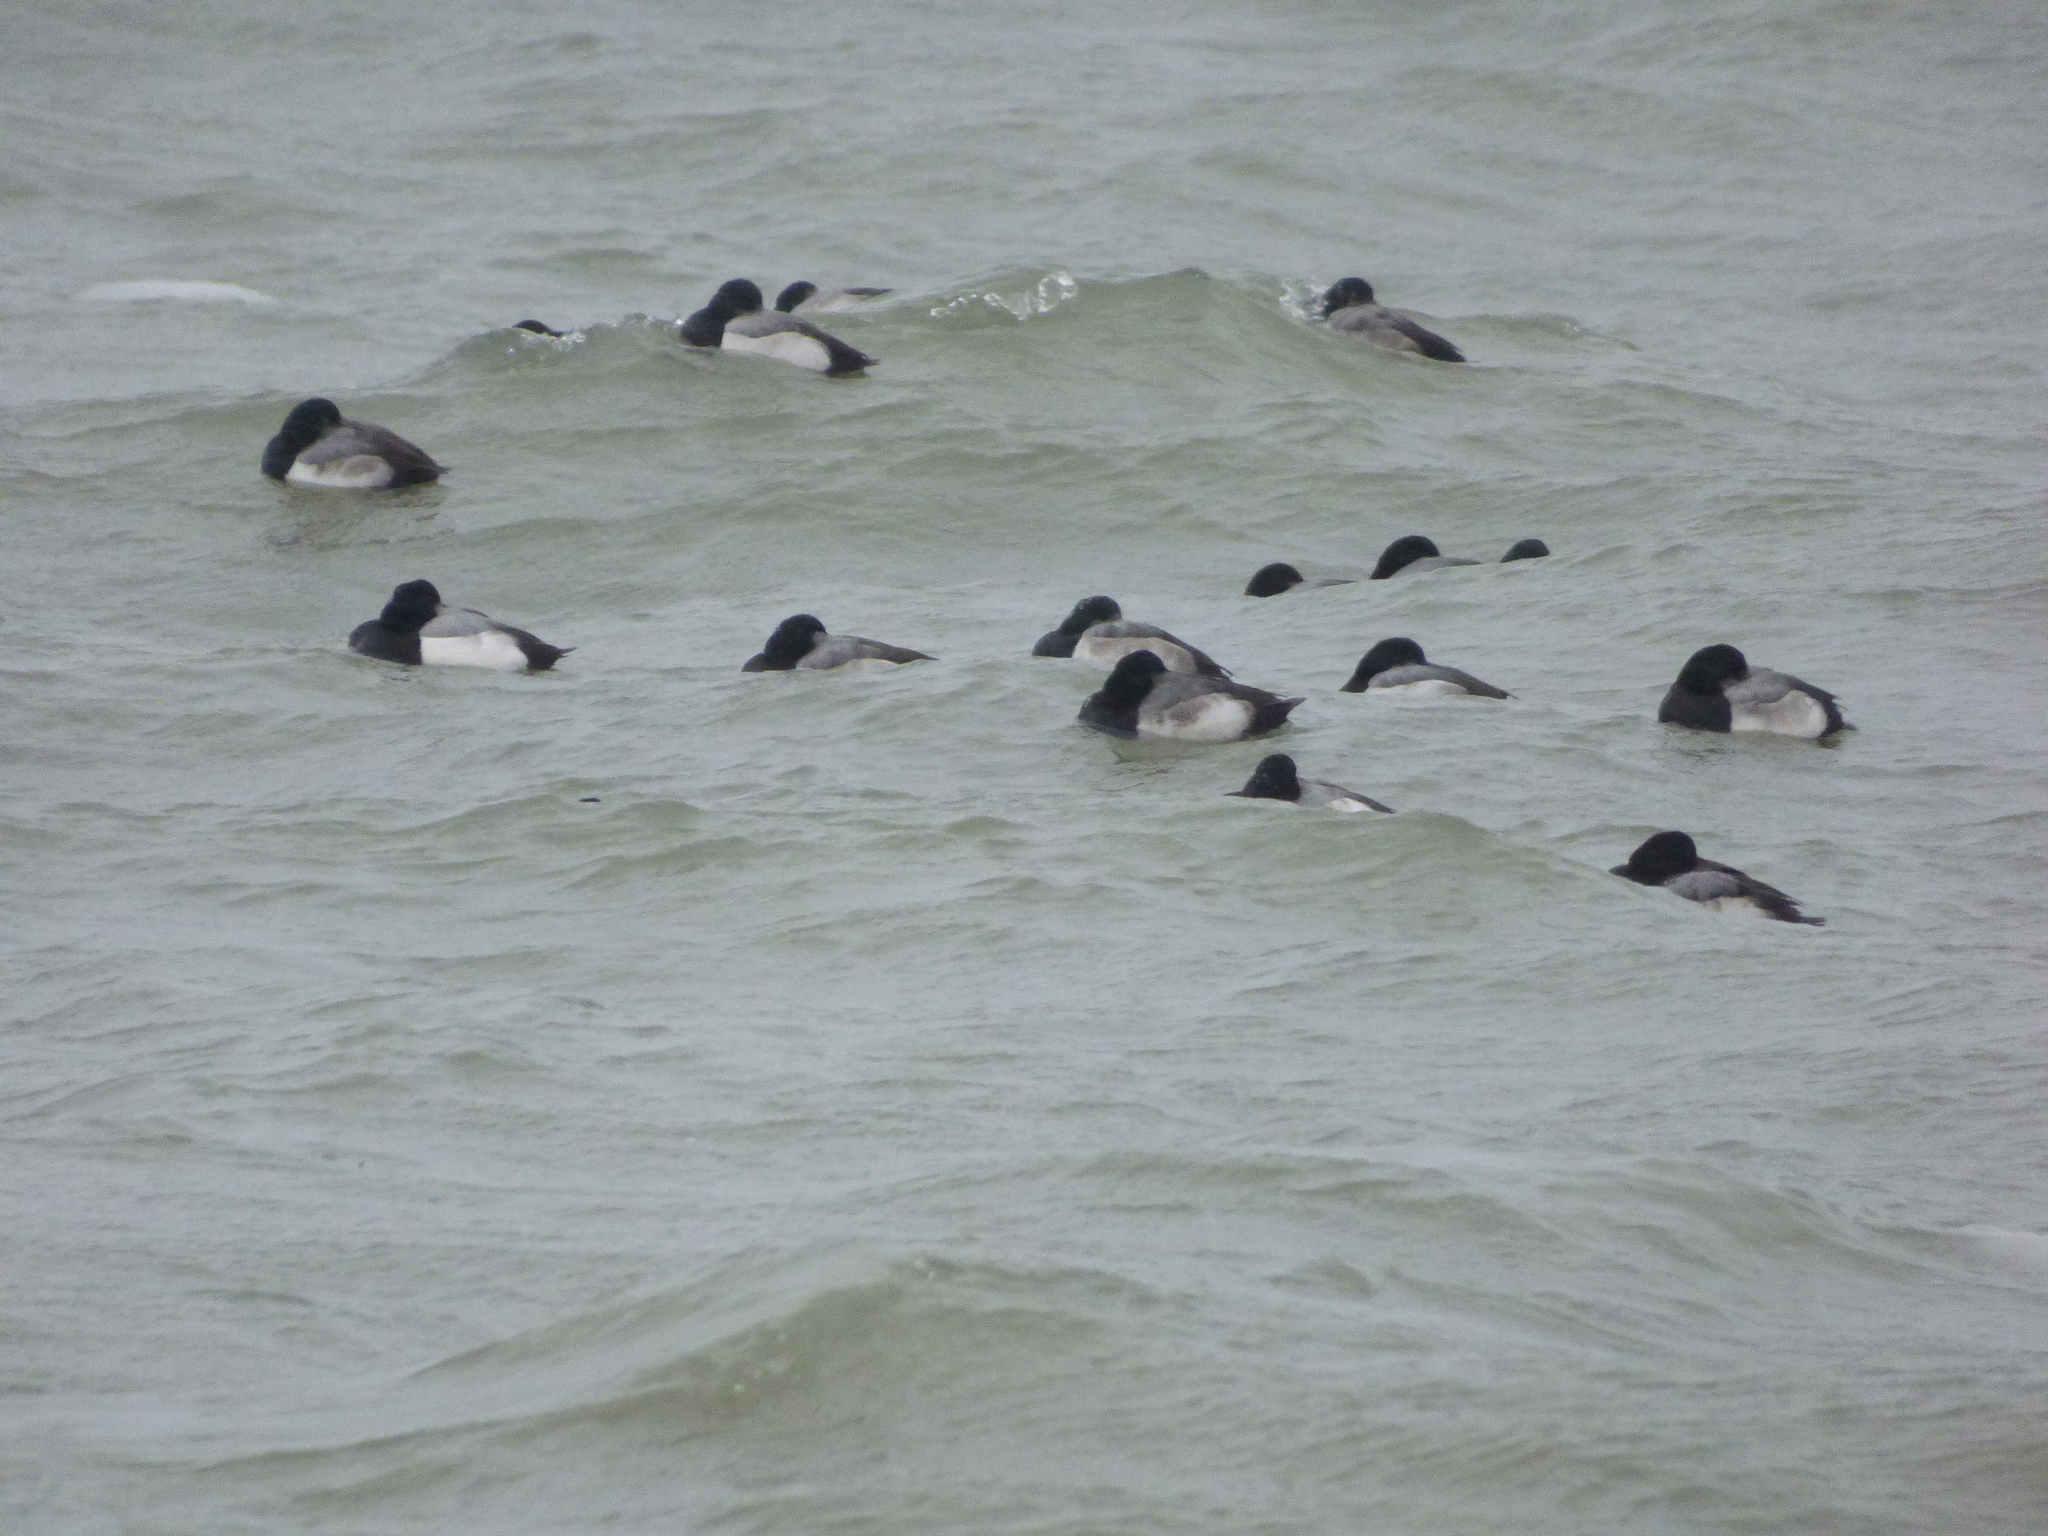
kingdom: Animalia
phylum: Chordata
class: Aves
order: Anseriformes
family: Anatidae
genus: Aythya
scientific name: Aythya marila
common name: Greater scaup
